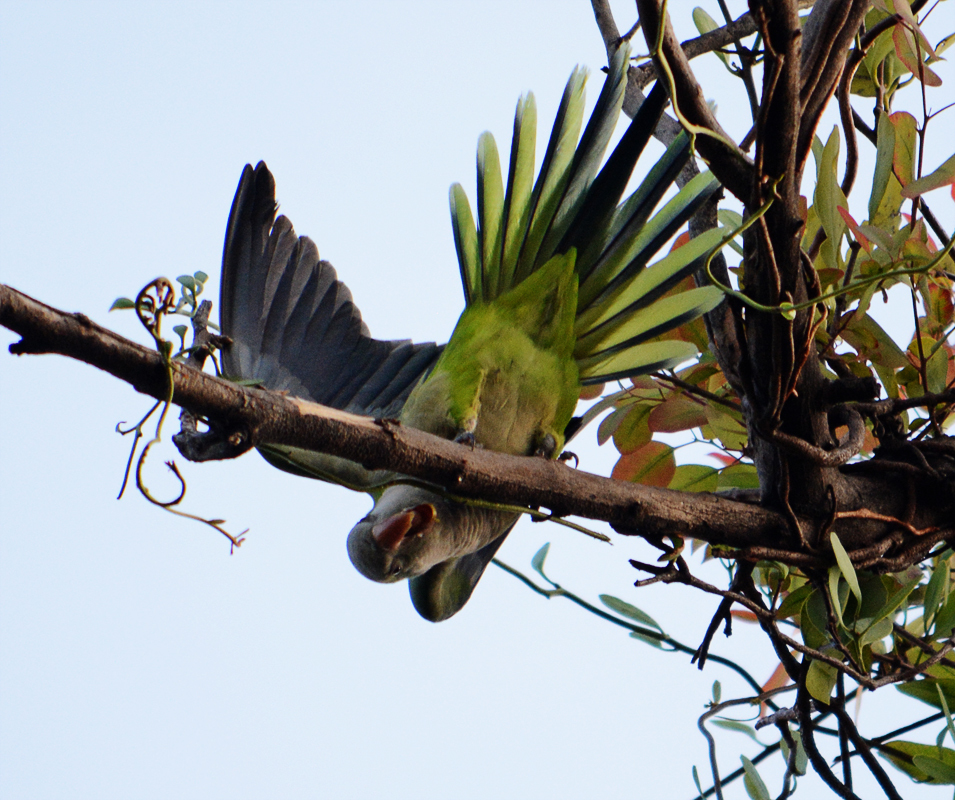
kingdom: Animalia
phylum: Chordata
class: Aves
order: Psittaciformes
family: Psittacidae
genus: Myiopsitta
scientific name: Myiopsitta monachus
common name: Monk parakeet
